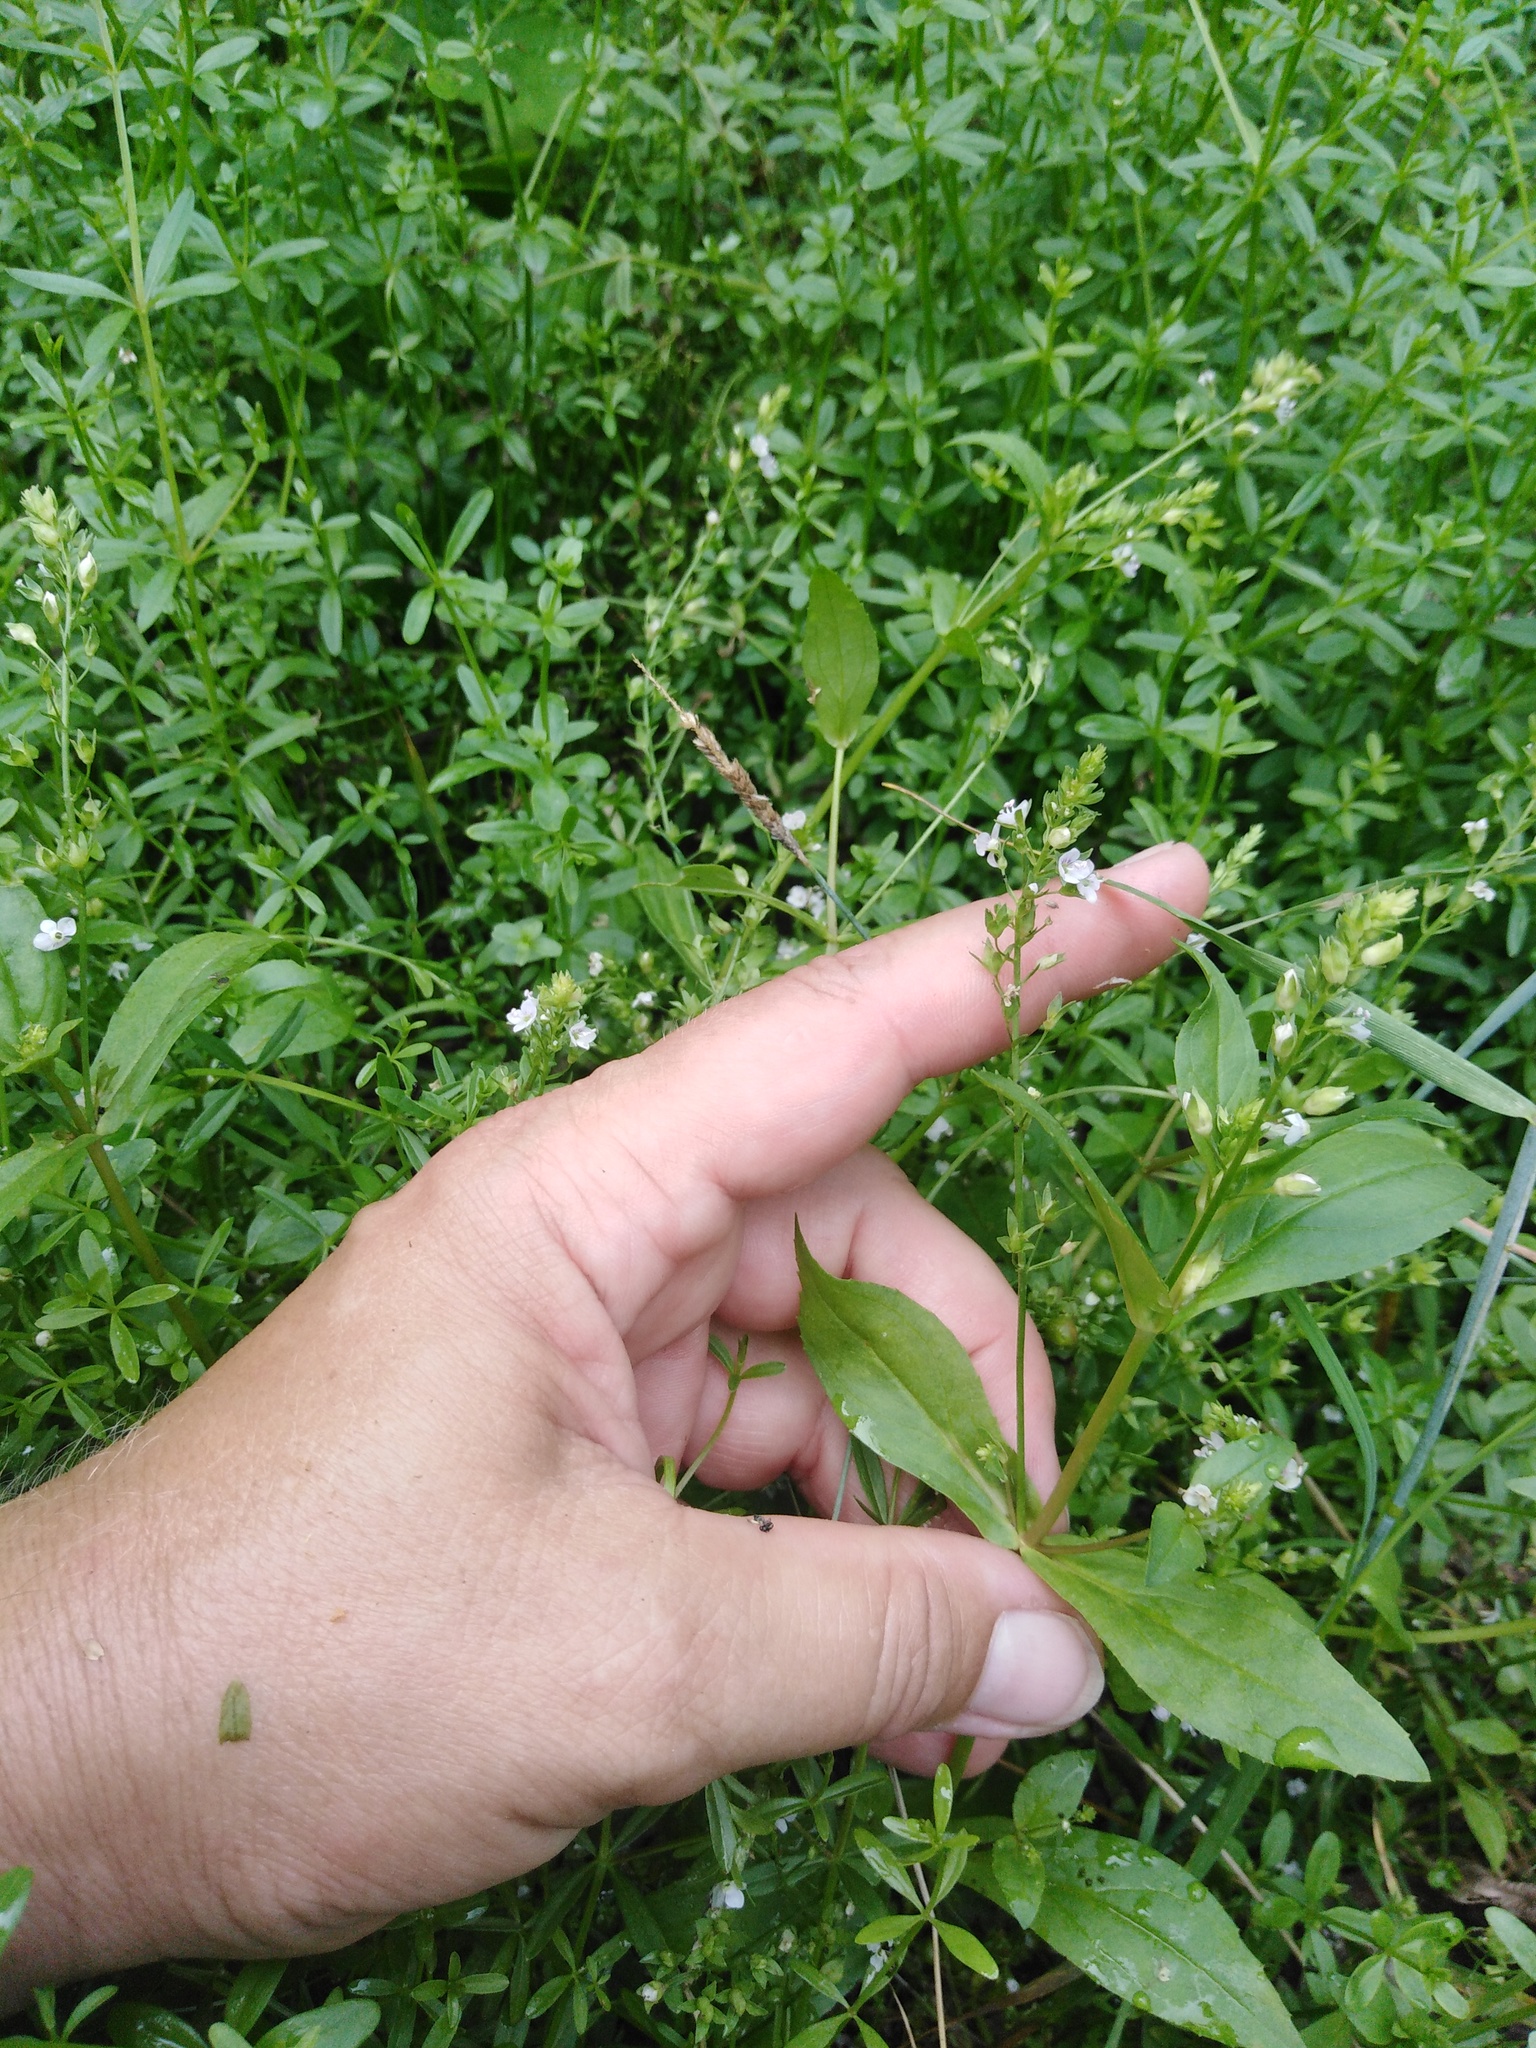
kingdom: Plantae
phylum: Tracheophyta
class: Magnoliopsida
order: Lamiales
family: Plantaginaceae
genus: Veronica
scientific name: Veronica anagallis-aquatica
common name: Water speedwell
